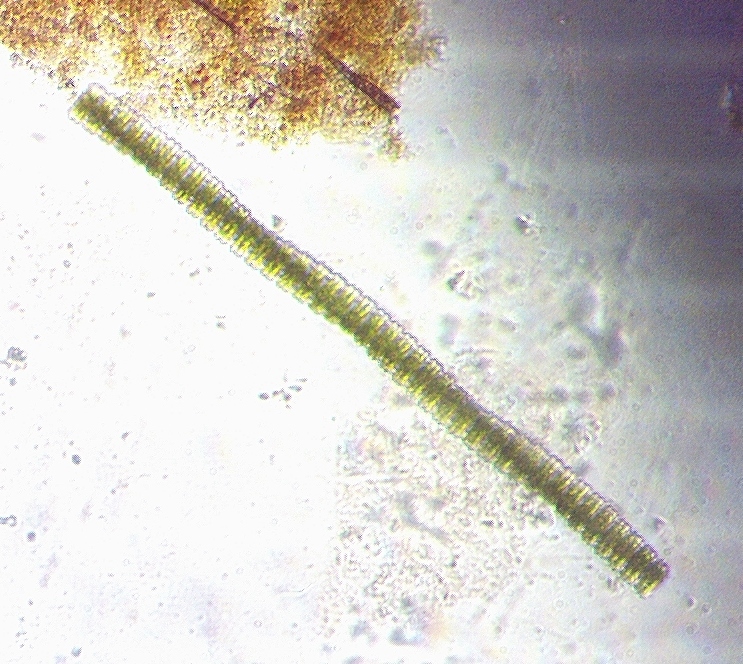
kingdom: Plantae
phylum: Charophyta
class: Conjugatophyceae
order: Desmidiales
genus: Desmidium
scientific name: Desmidium swartzii
